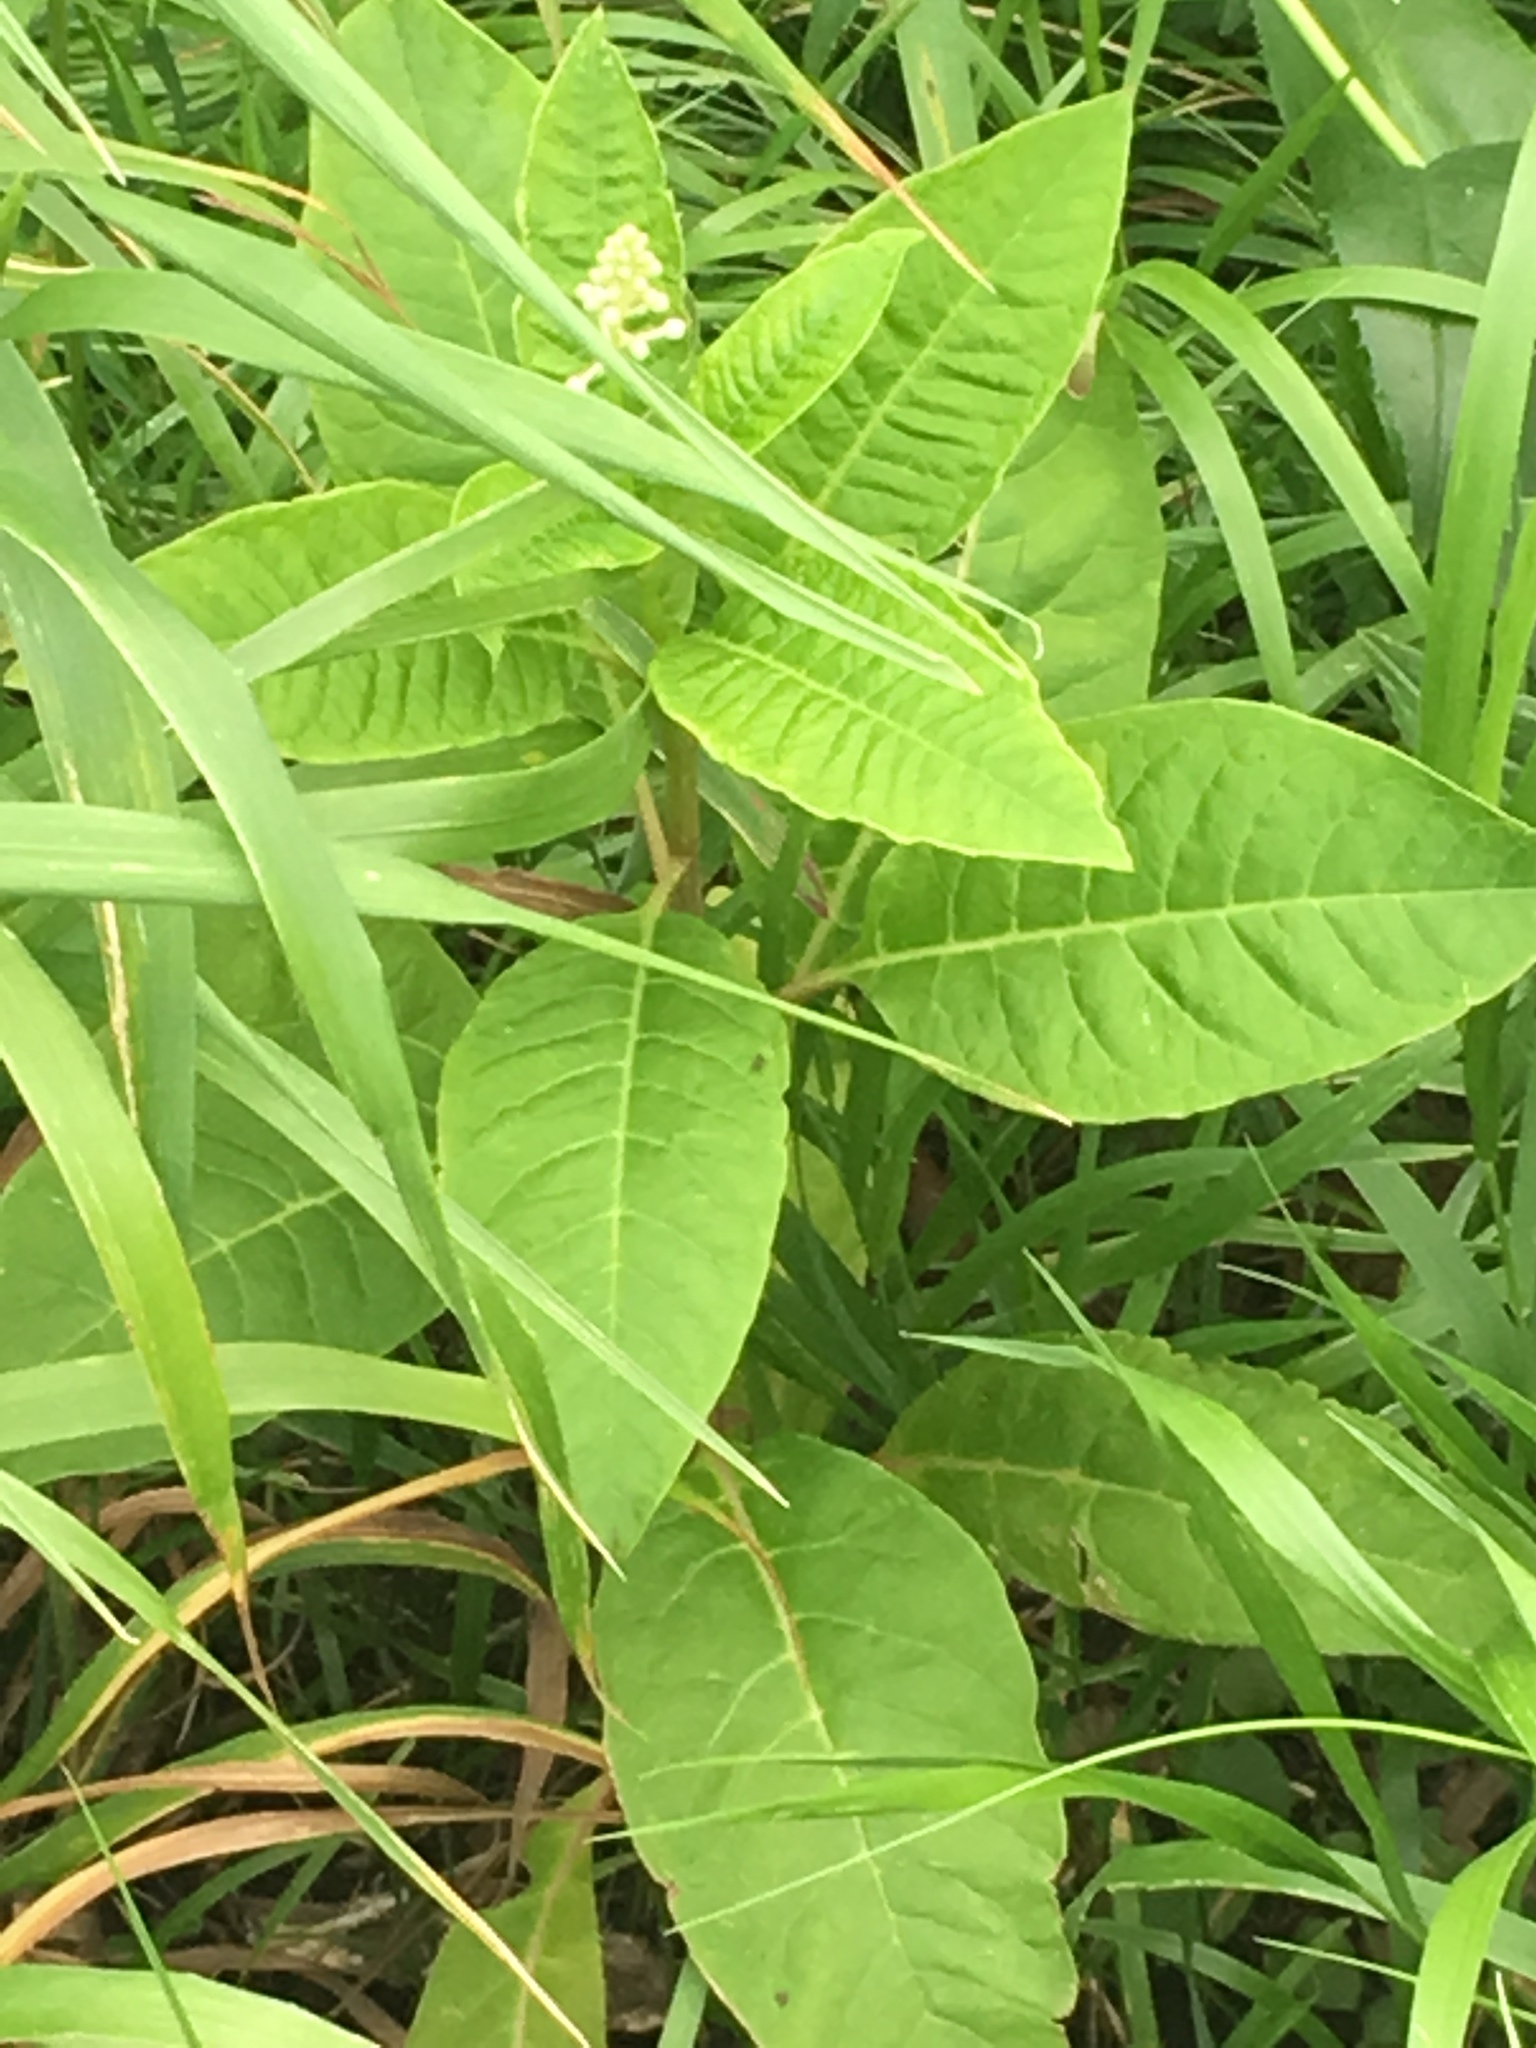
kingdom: Plantae
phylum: Tracheophyta
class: Magnoliopsida
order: Caryophyllales
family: Phytolaccaceae
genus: Phytolacca
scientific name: Phytolacca americana
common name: American pokeweed
